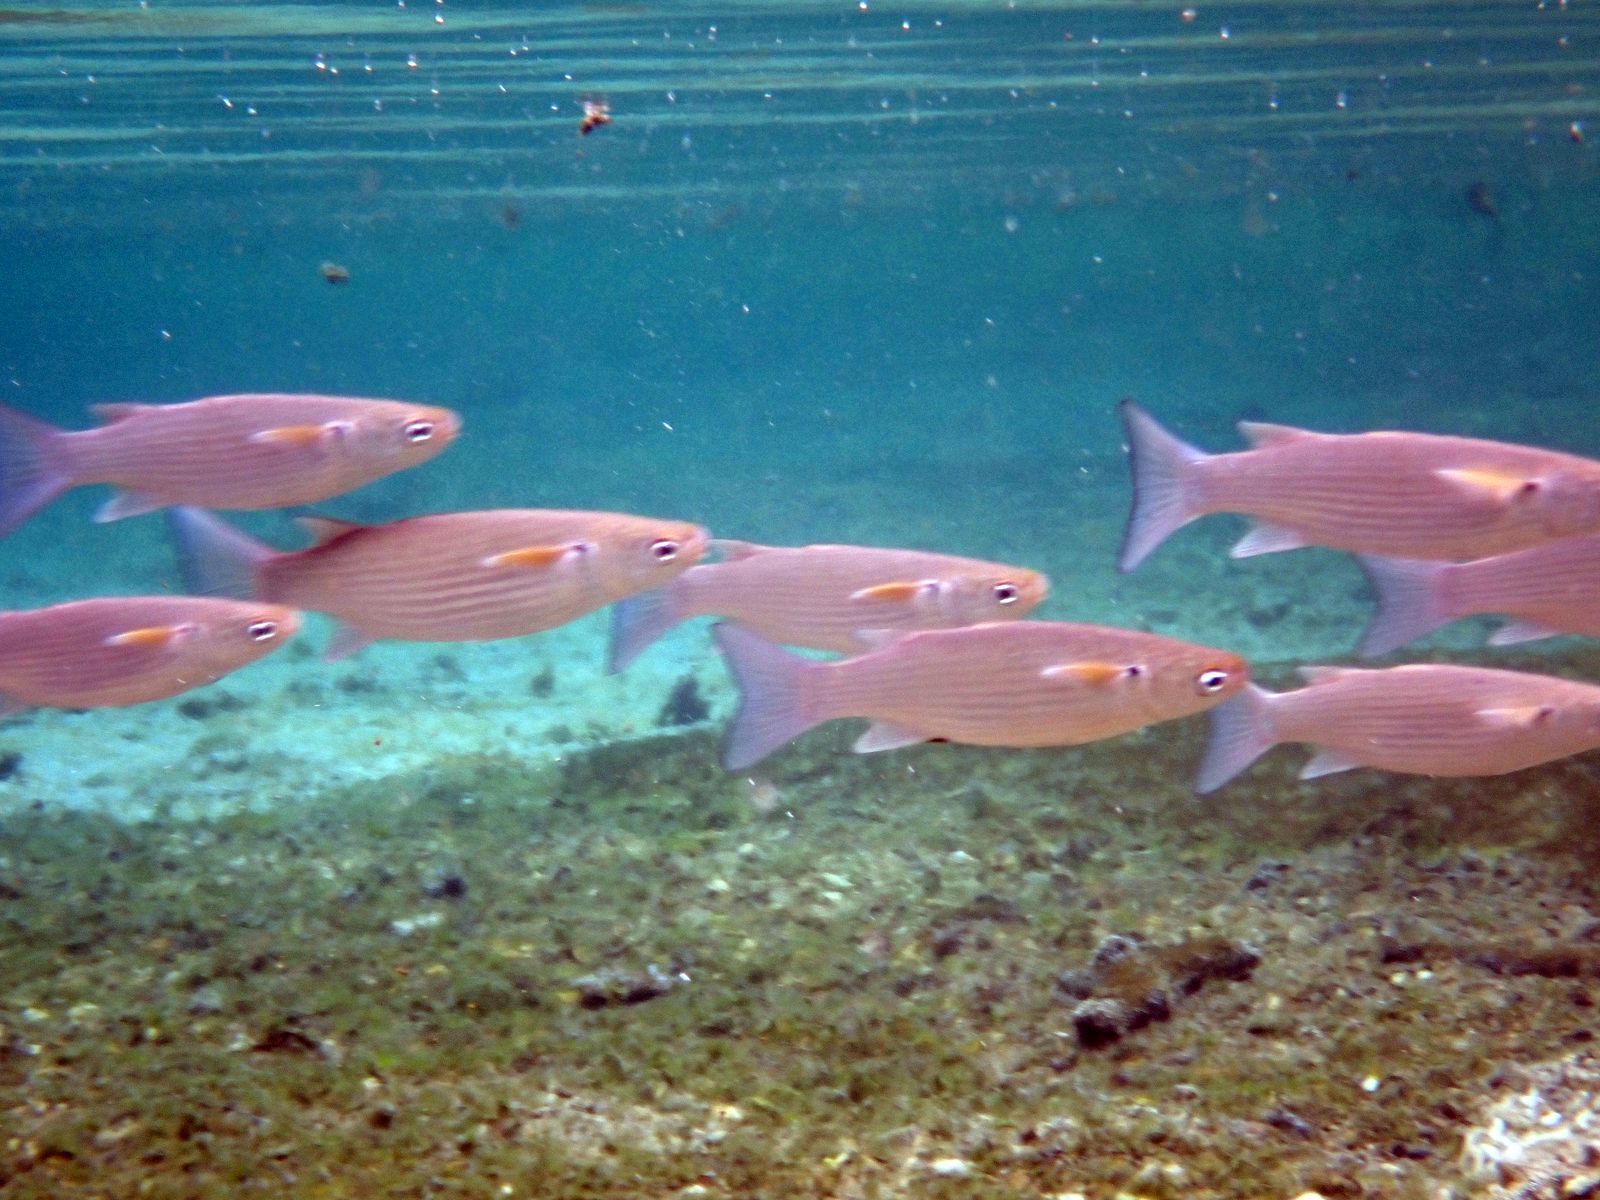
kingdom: Animalia
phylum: Chordata
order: Mugiliformes
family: Mugilidae
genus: Crenimugil
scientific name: Crenimugil crenilabis
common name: Fringelip mullet
